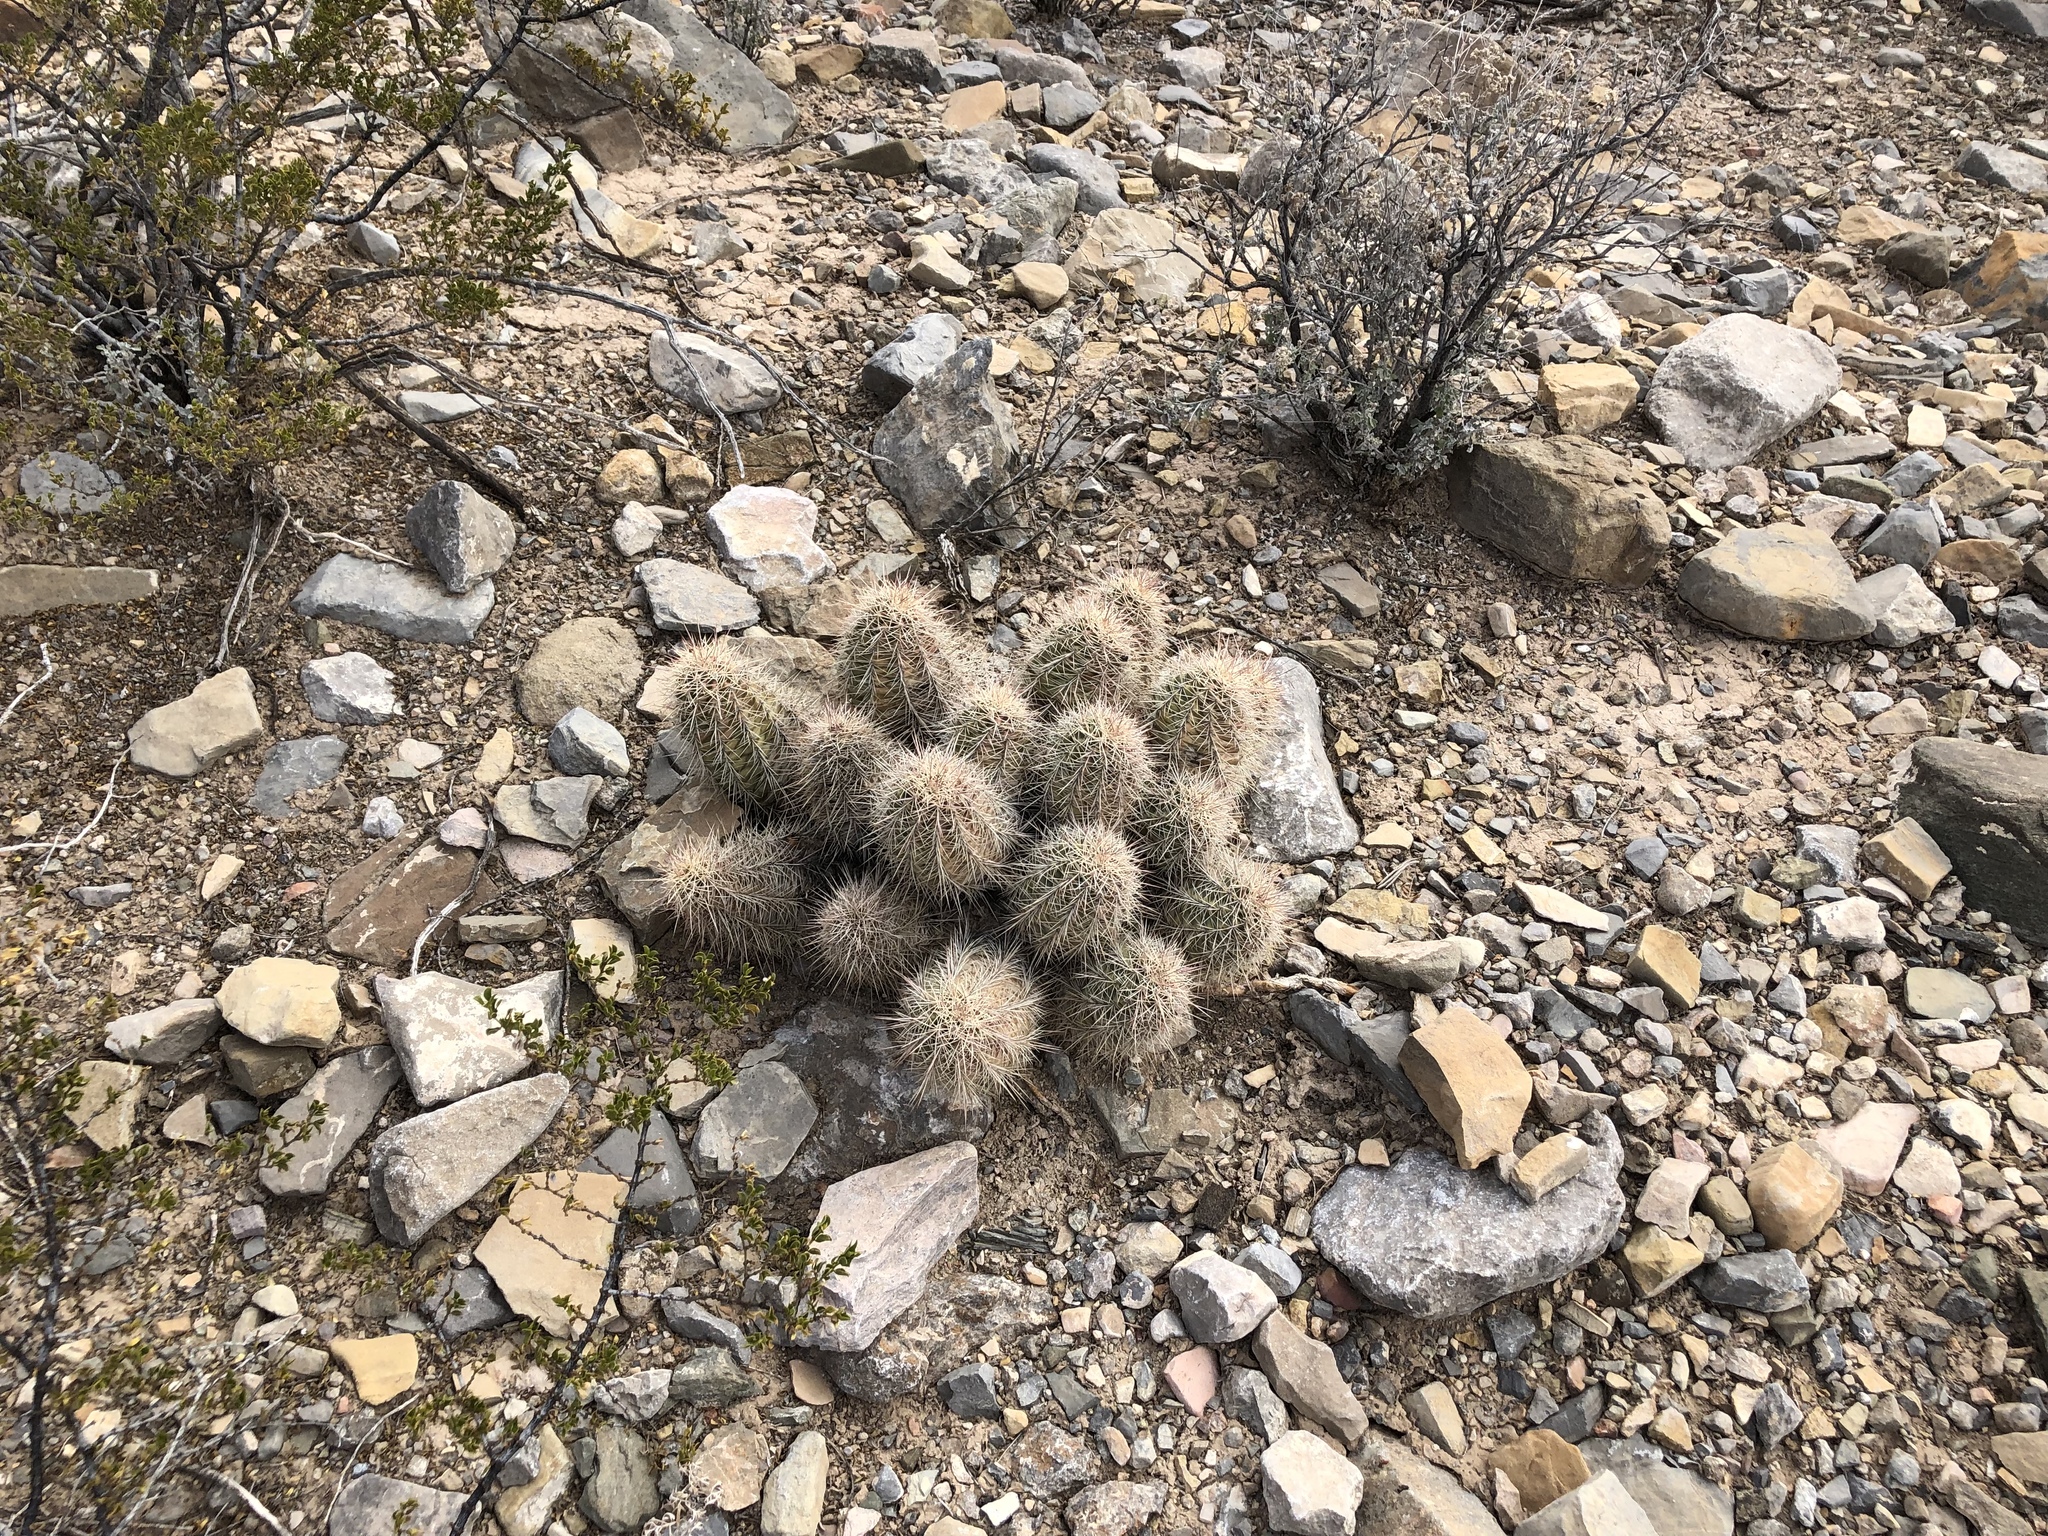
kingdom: Plantae
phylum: Tracheophyta
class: Magnoliopsida
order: Caryophyllales
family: Cactaceae
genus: Echinocereus
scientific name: Echinocereus coccineus
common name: Scarlet hedgehog cactus
